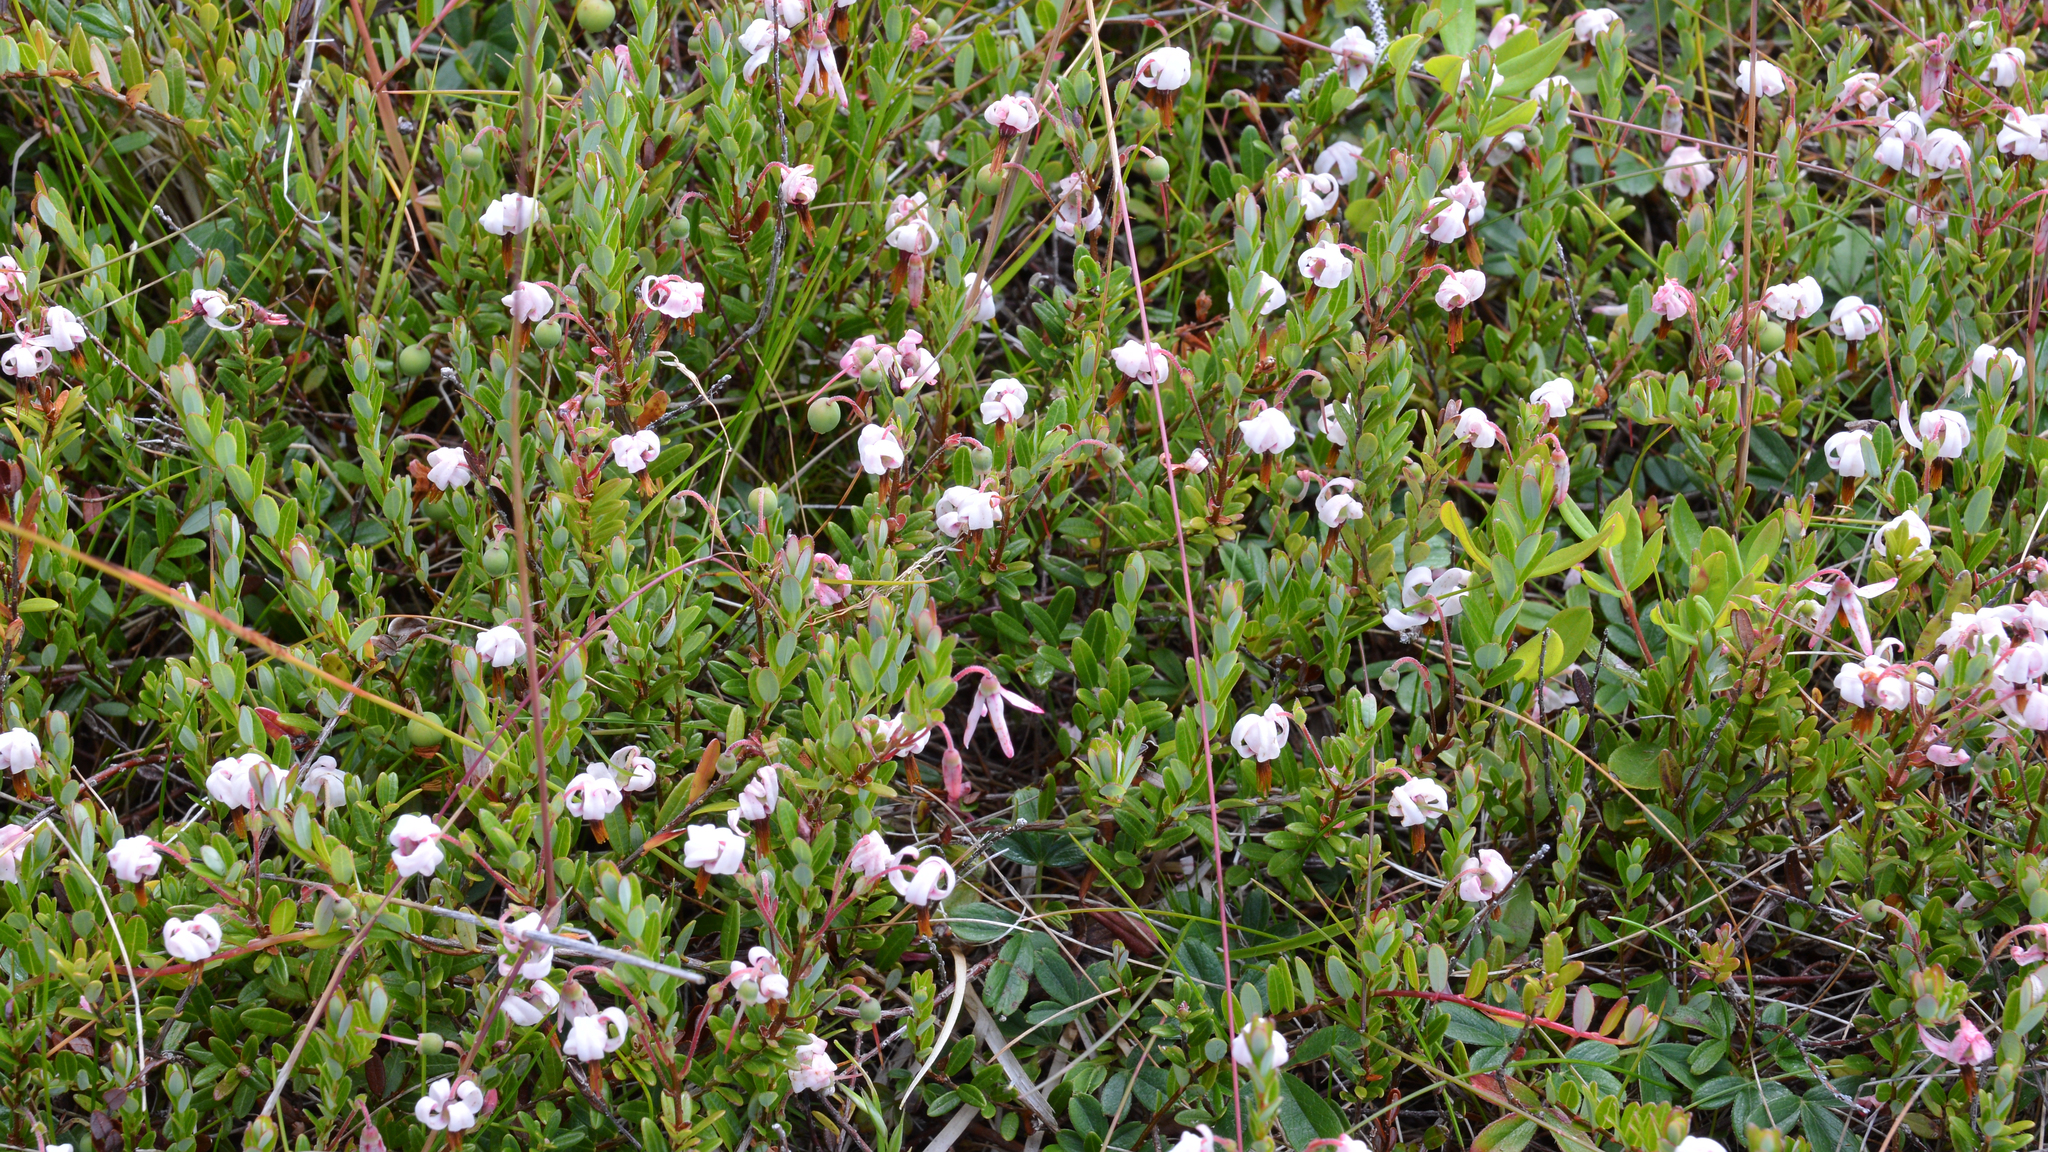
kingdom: Plantae
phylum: Tracheophyta
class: Magnoliopsida
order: Ericales
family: Ericaceae
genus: Vaccinium
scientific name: Vaccinium macrocarpon
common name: American cranberry
